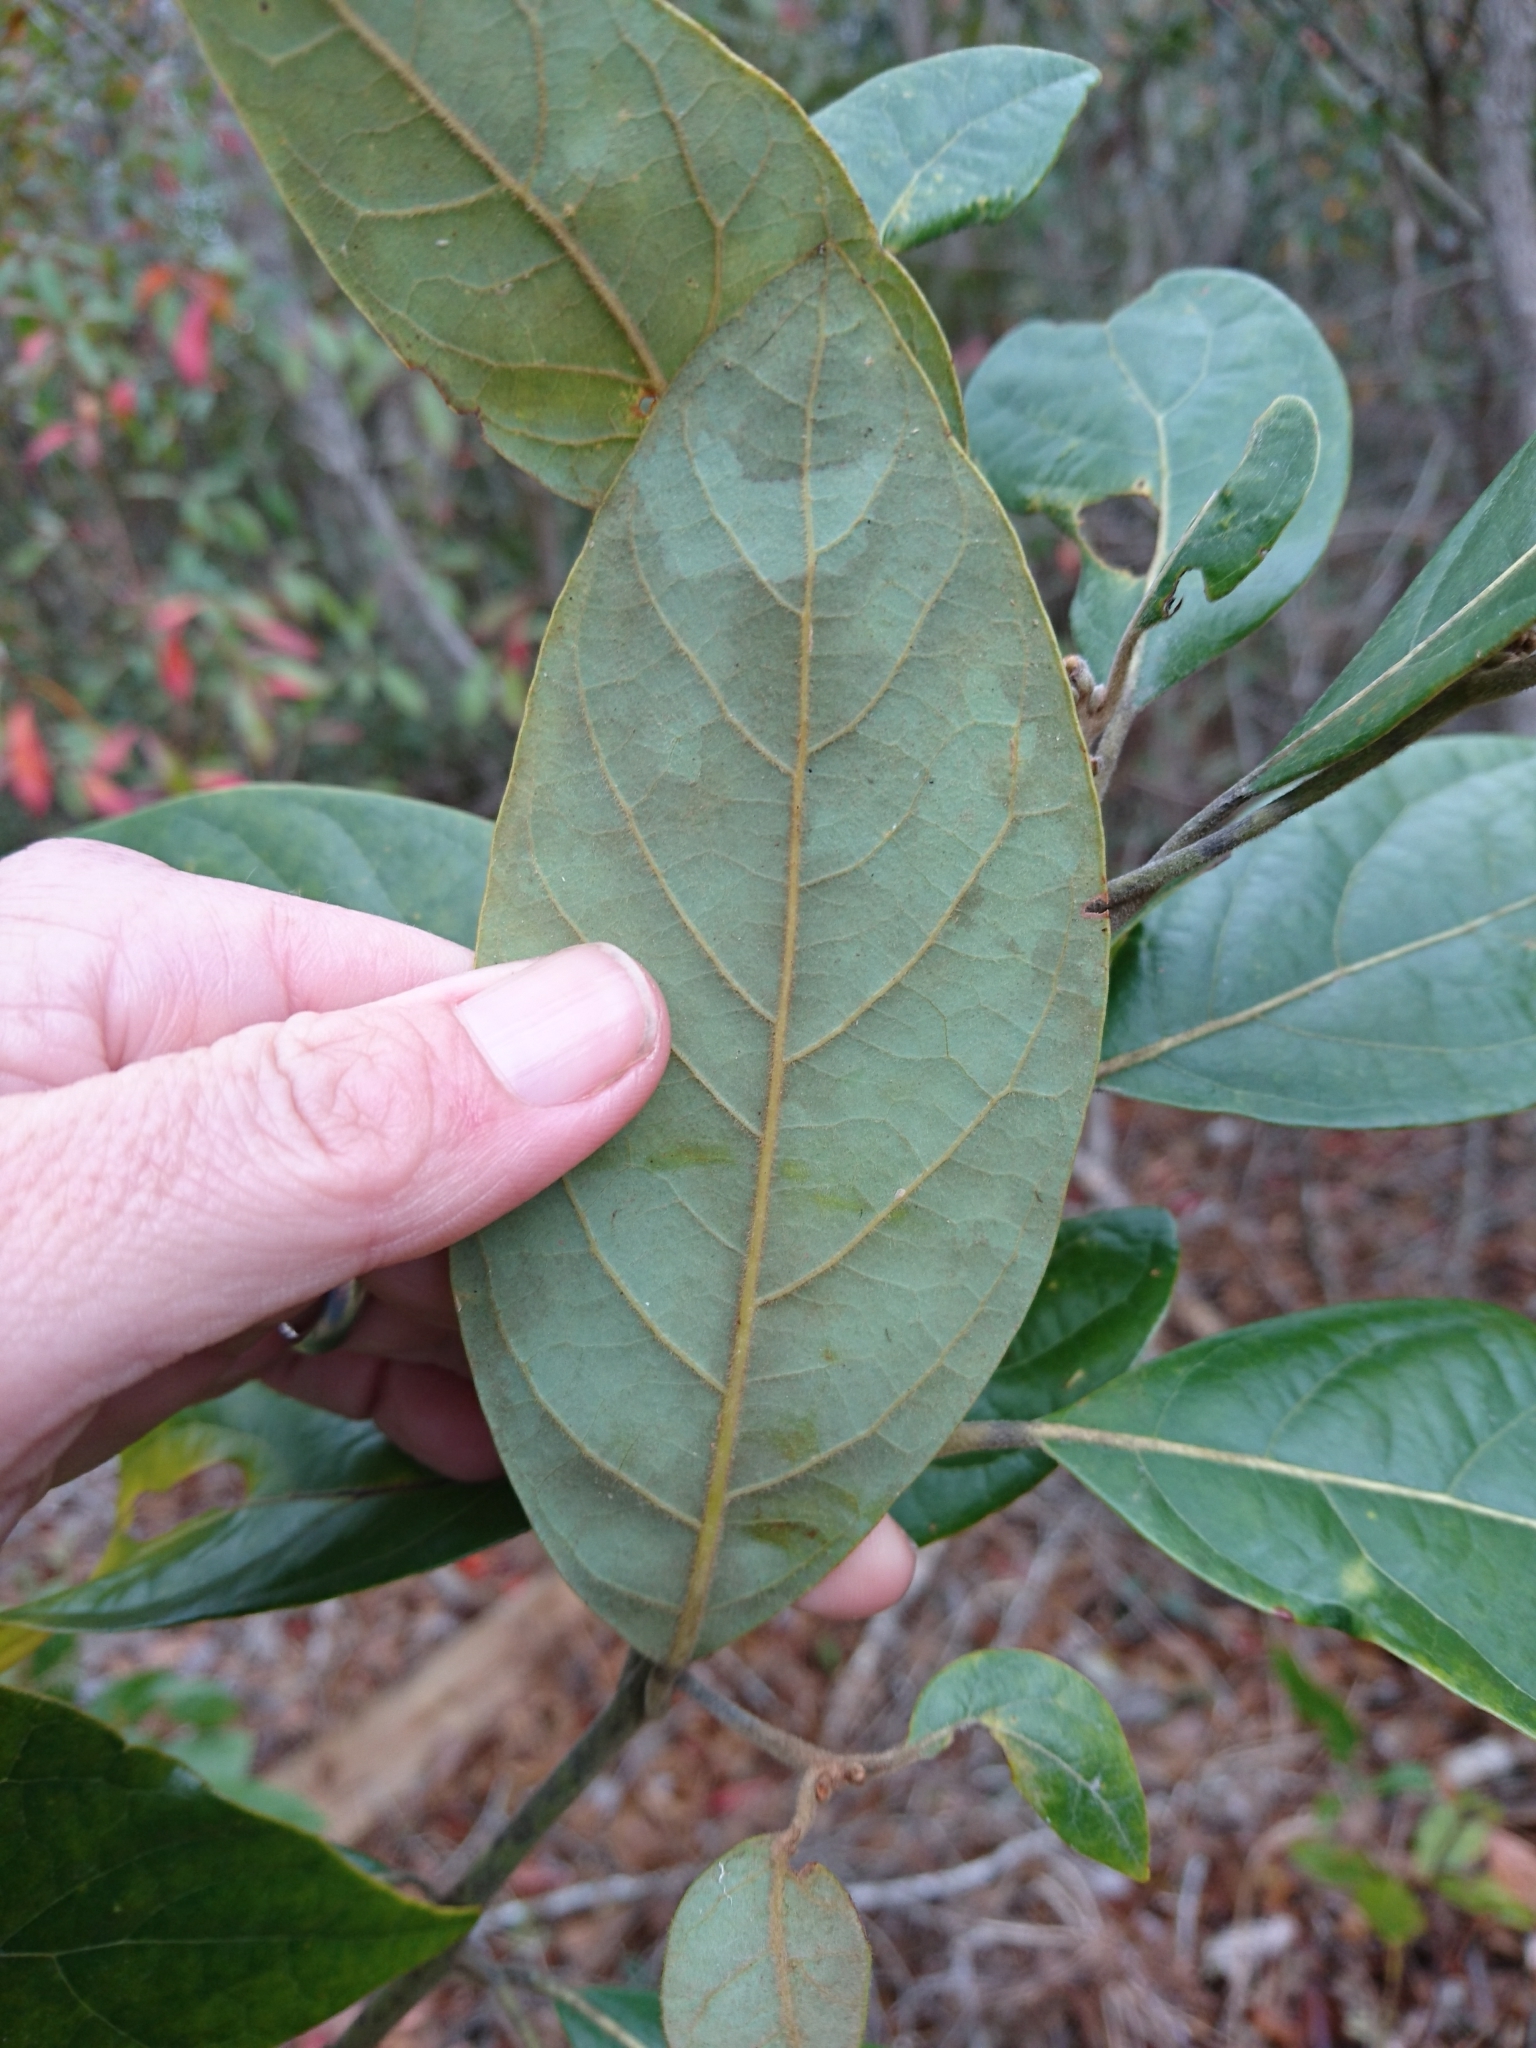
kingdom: Plantae
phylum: Tracheophyta
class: Magnoliopsida
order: Laurales
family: Lauraceae
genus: Persea
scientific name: Persea palustris
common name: Swampbay
